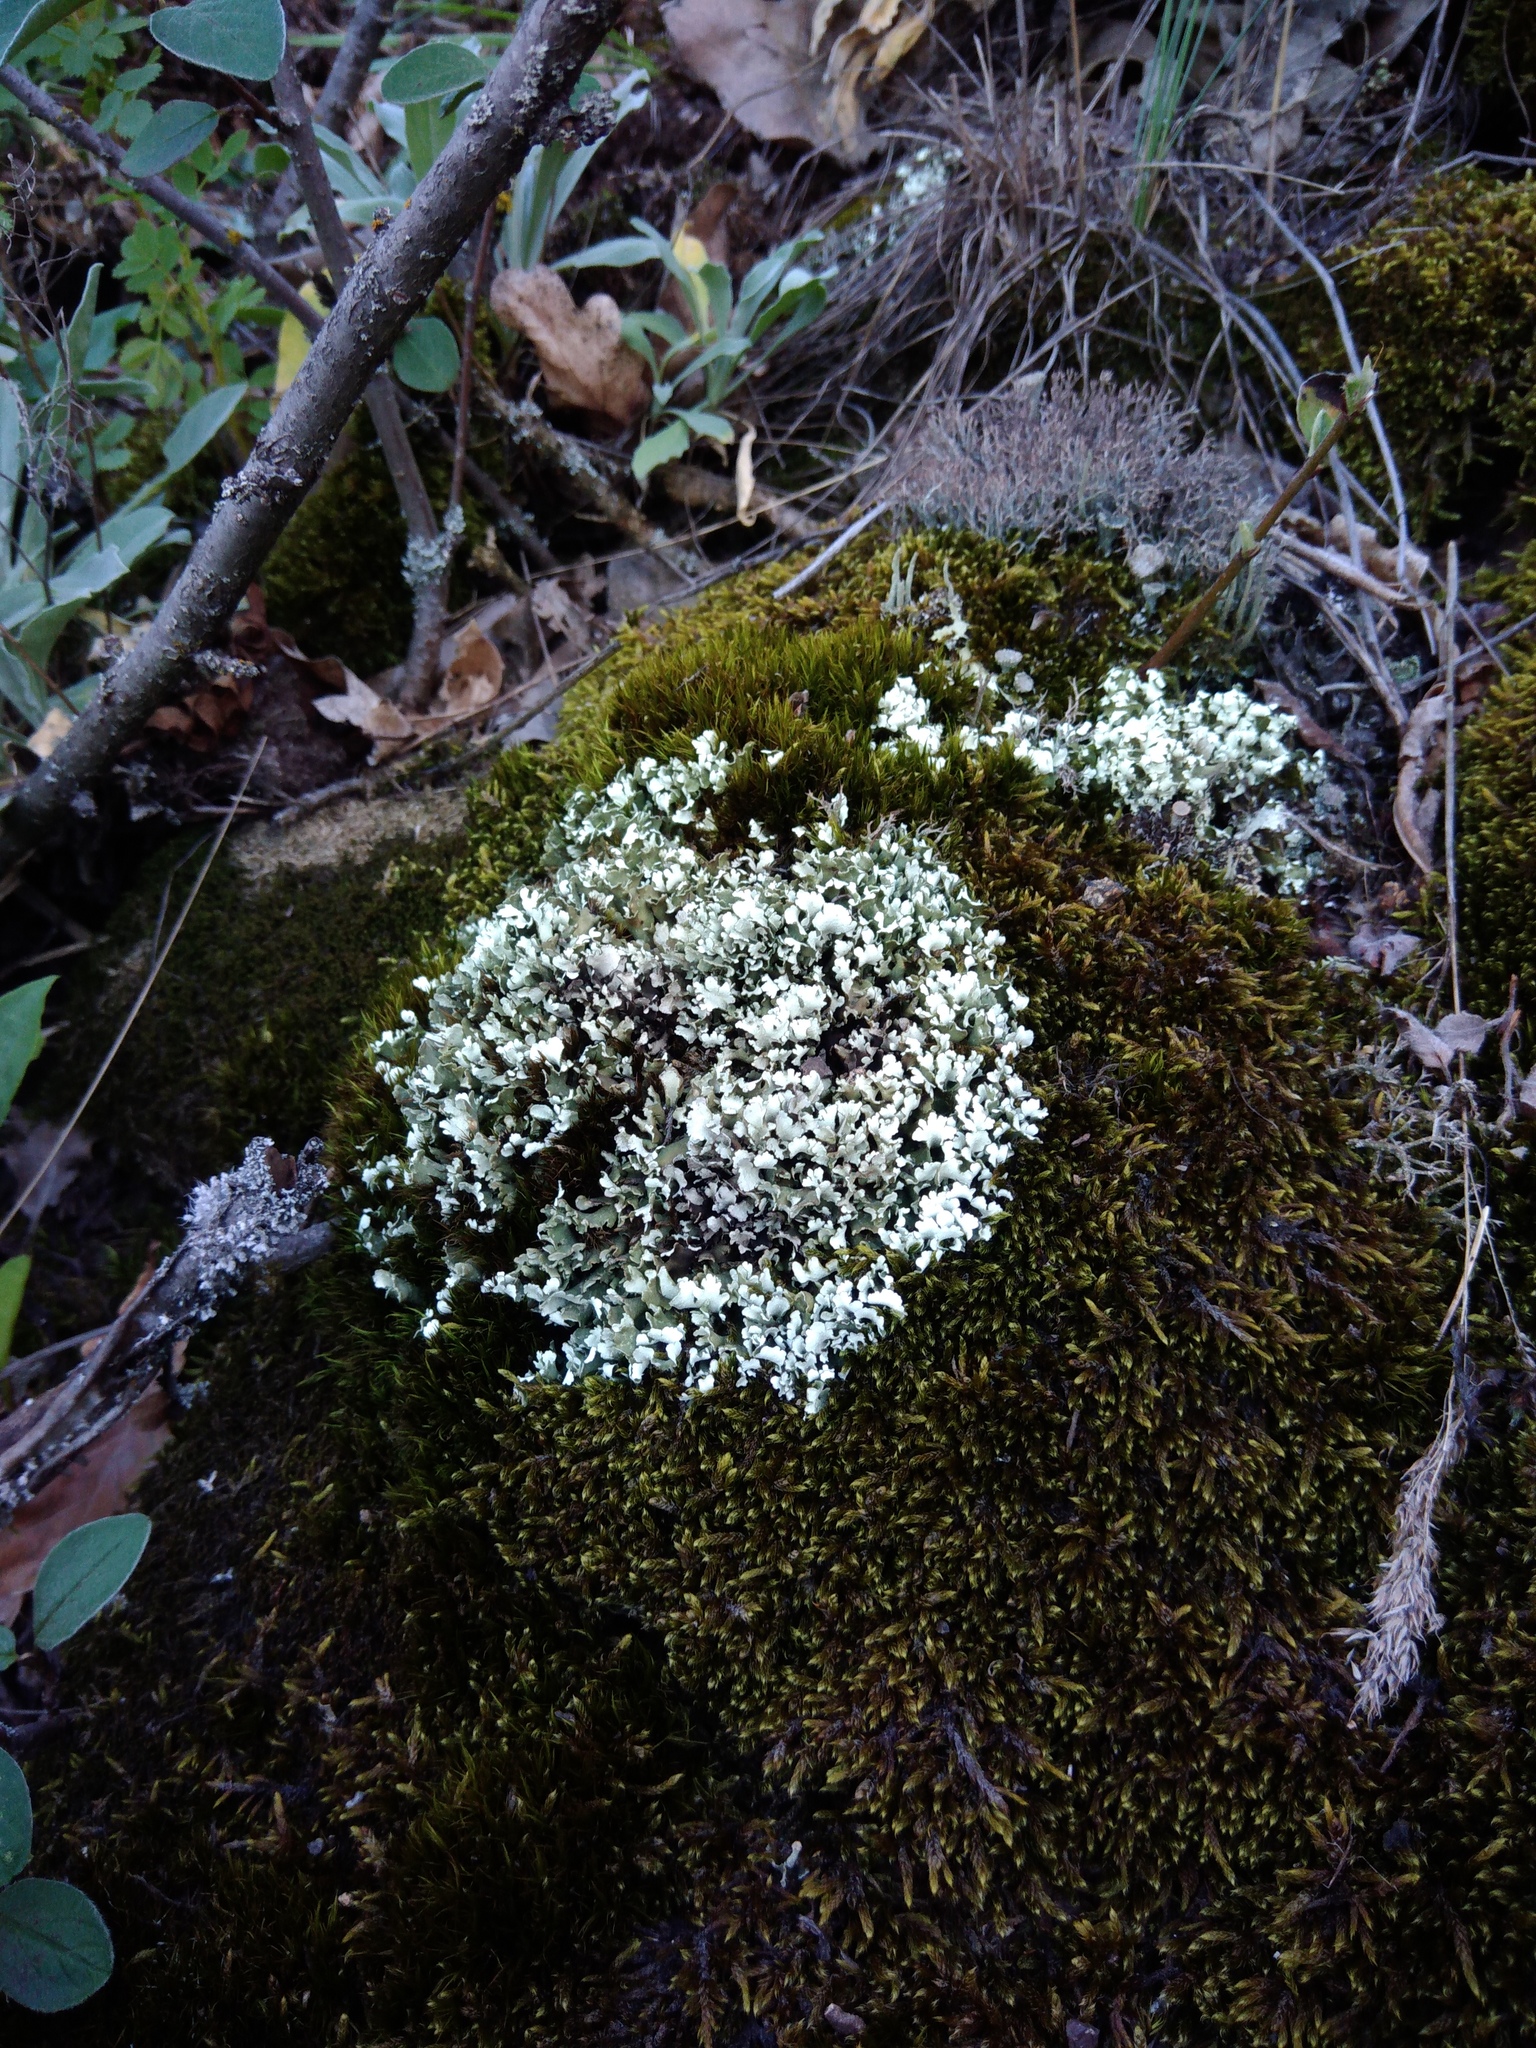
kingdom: Fungi
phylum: Ascomycota
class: Lecanoromycetes
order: Lecanorales
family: Cladoniaceae
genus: Cladonia
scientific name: Cladonia foliacea
